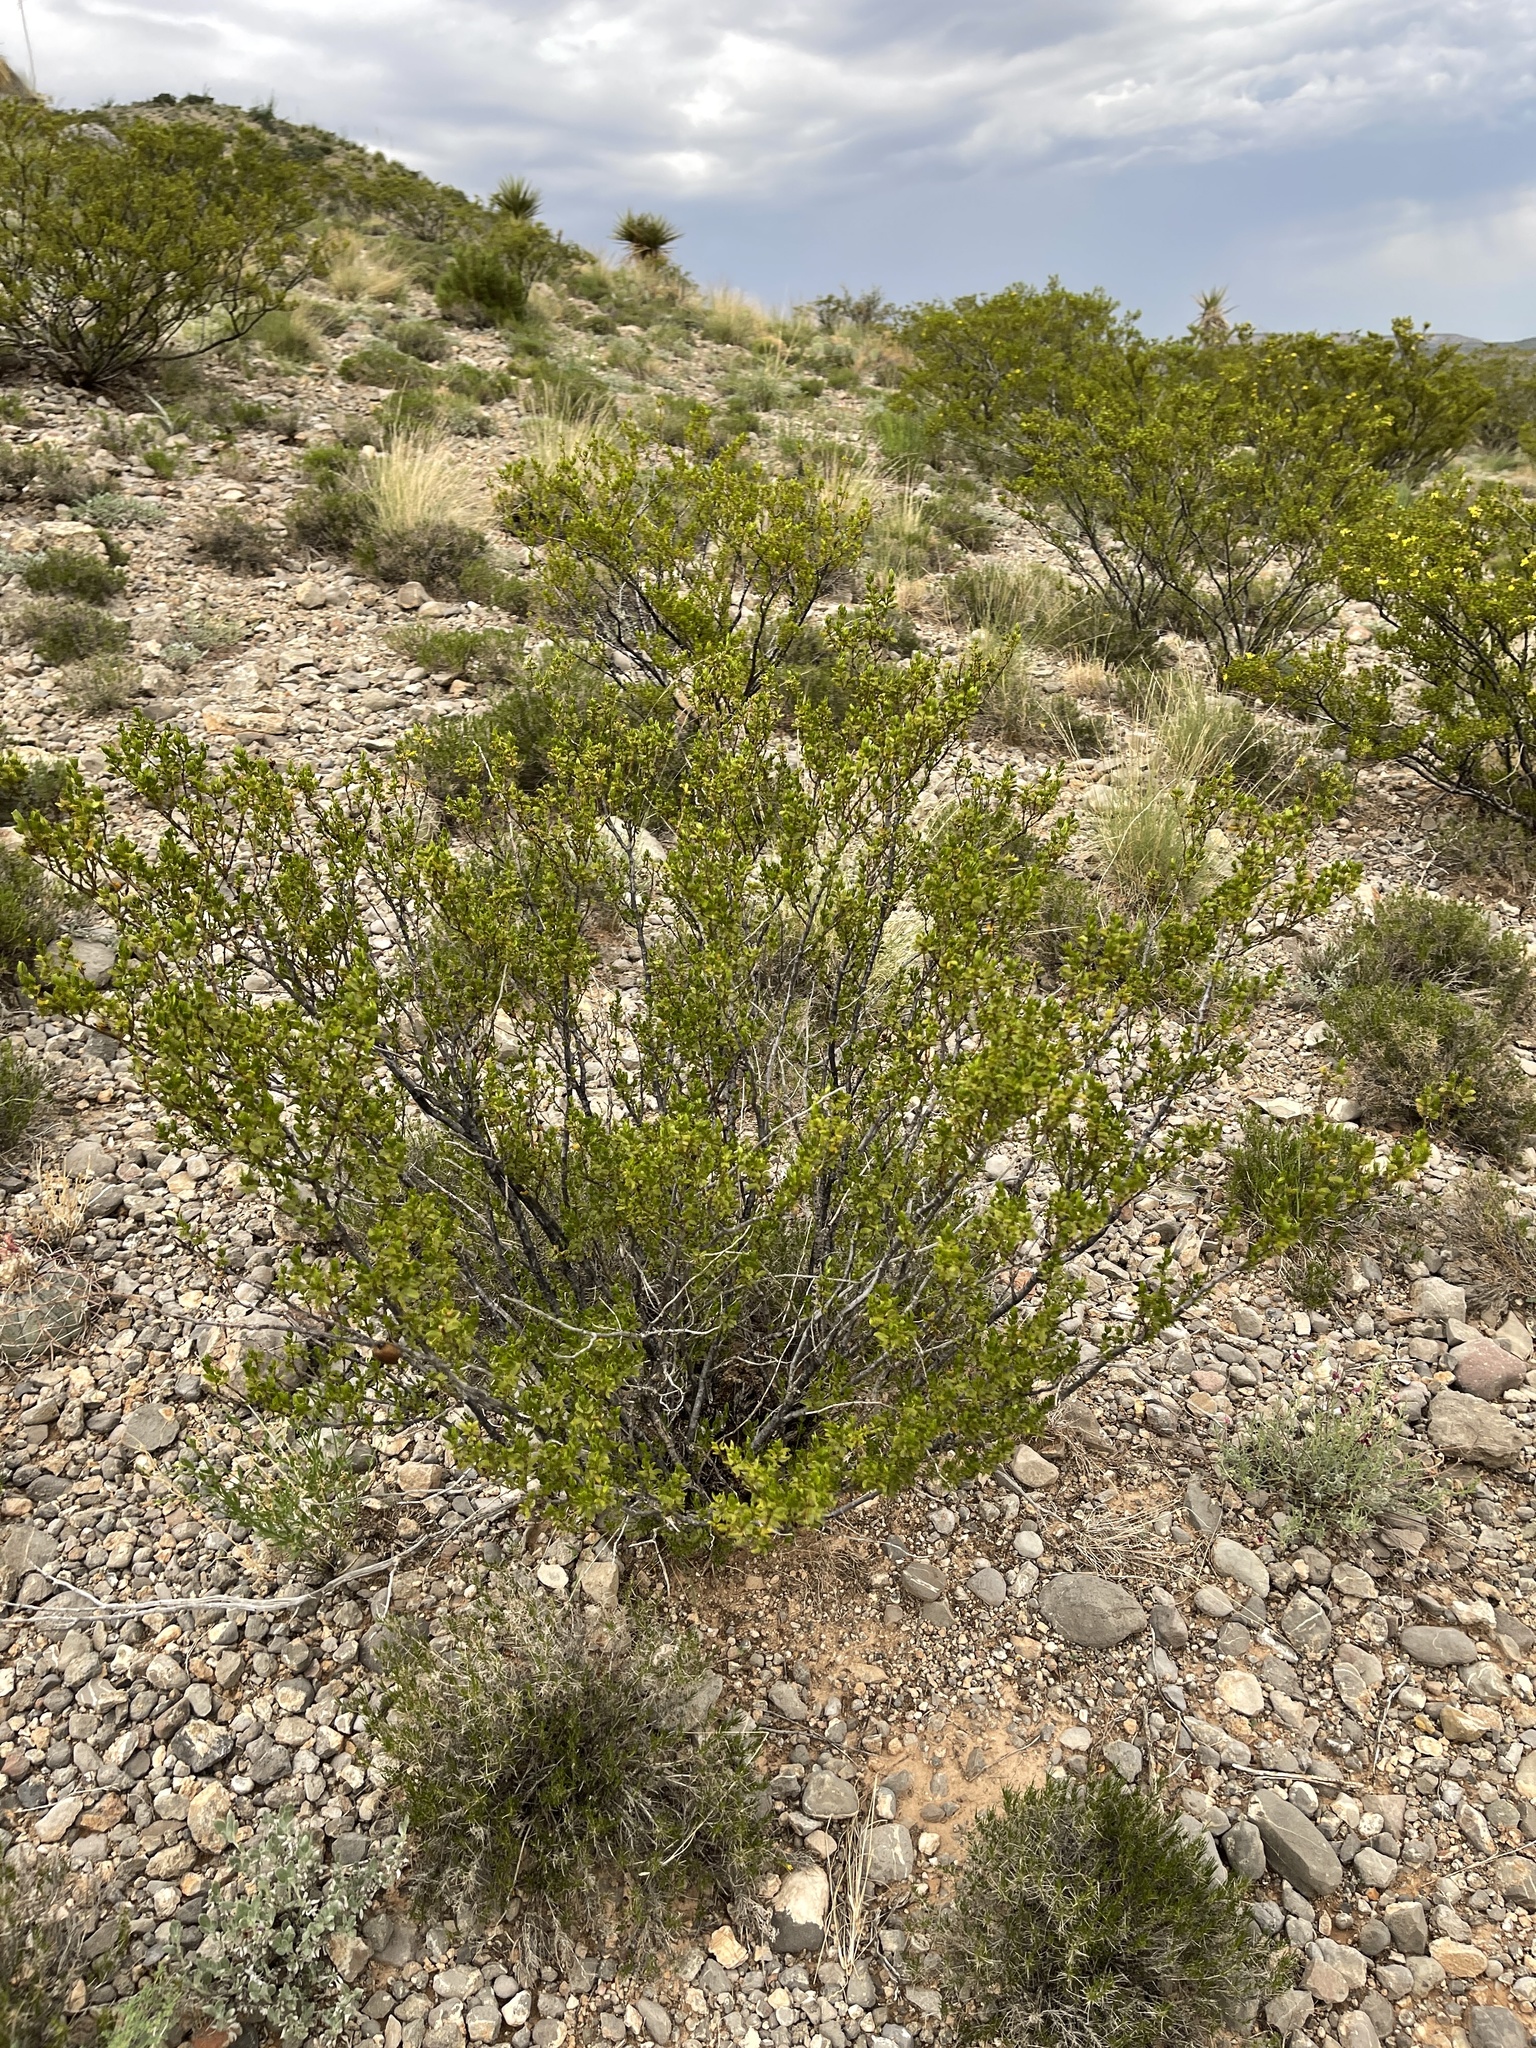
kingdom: Plantae
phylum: Tracheophyta
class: Magnoliopsida
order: Zygophyllales
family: Zygophyllaceae
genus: Larrea
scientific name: Larrea tridentata
